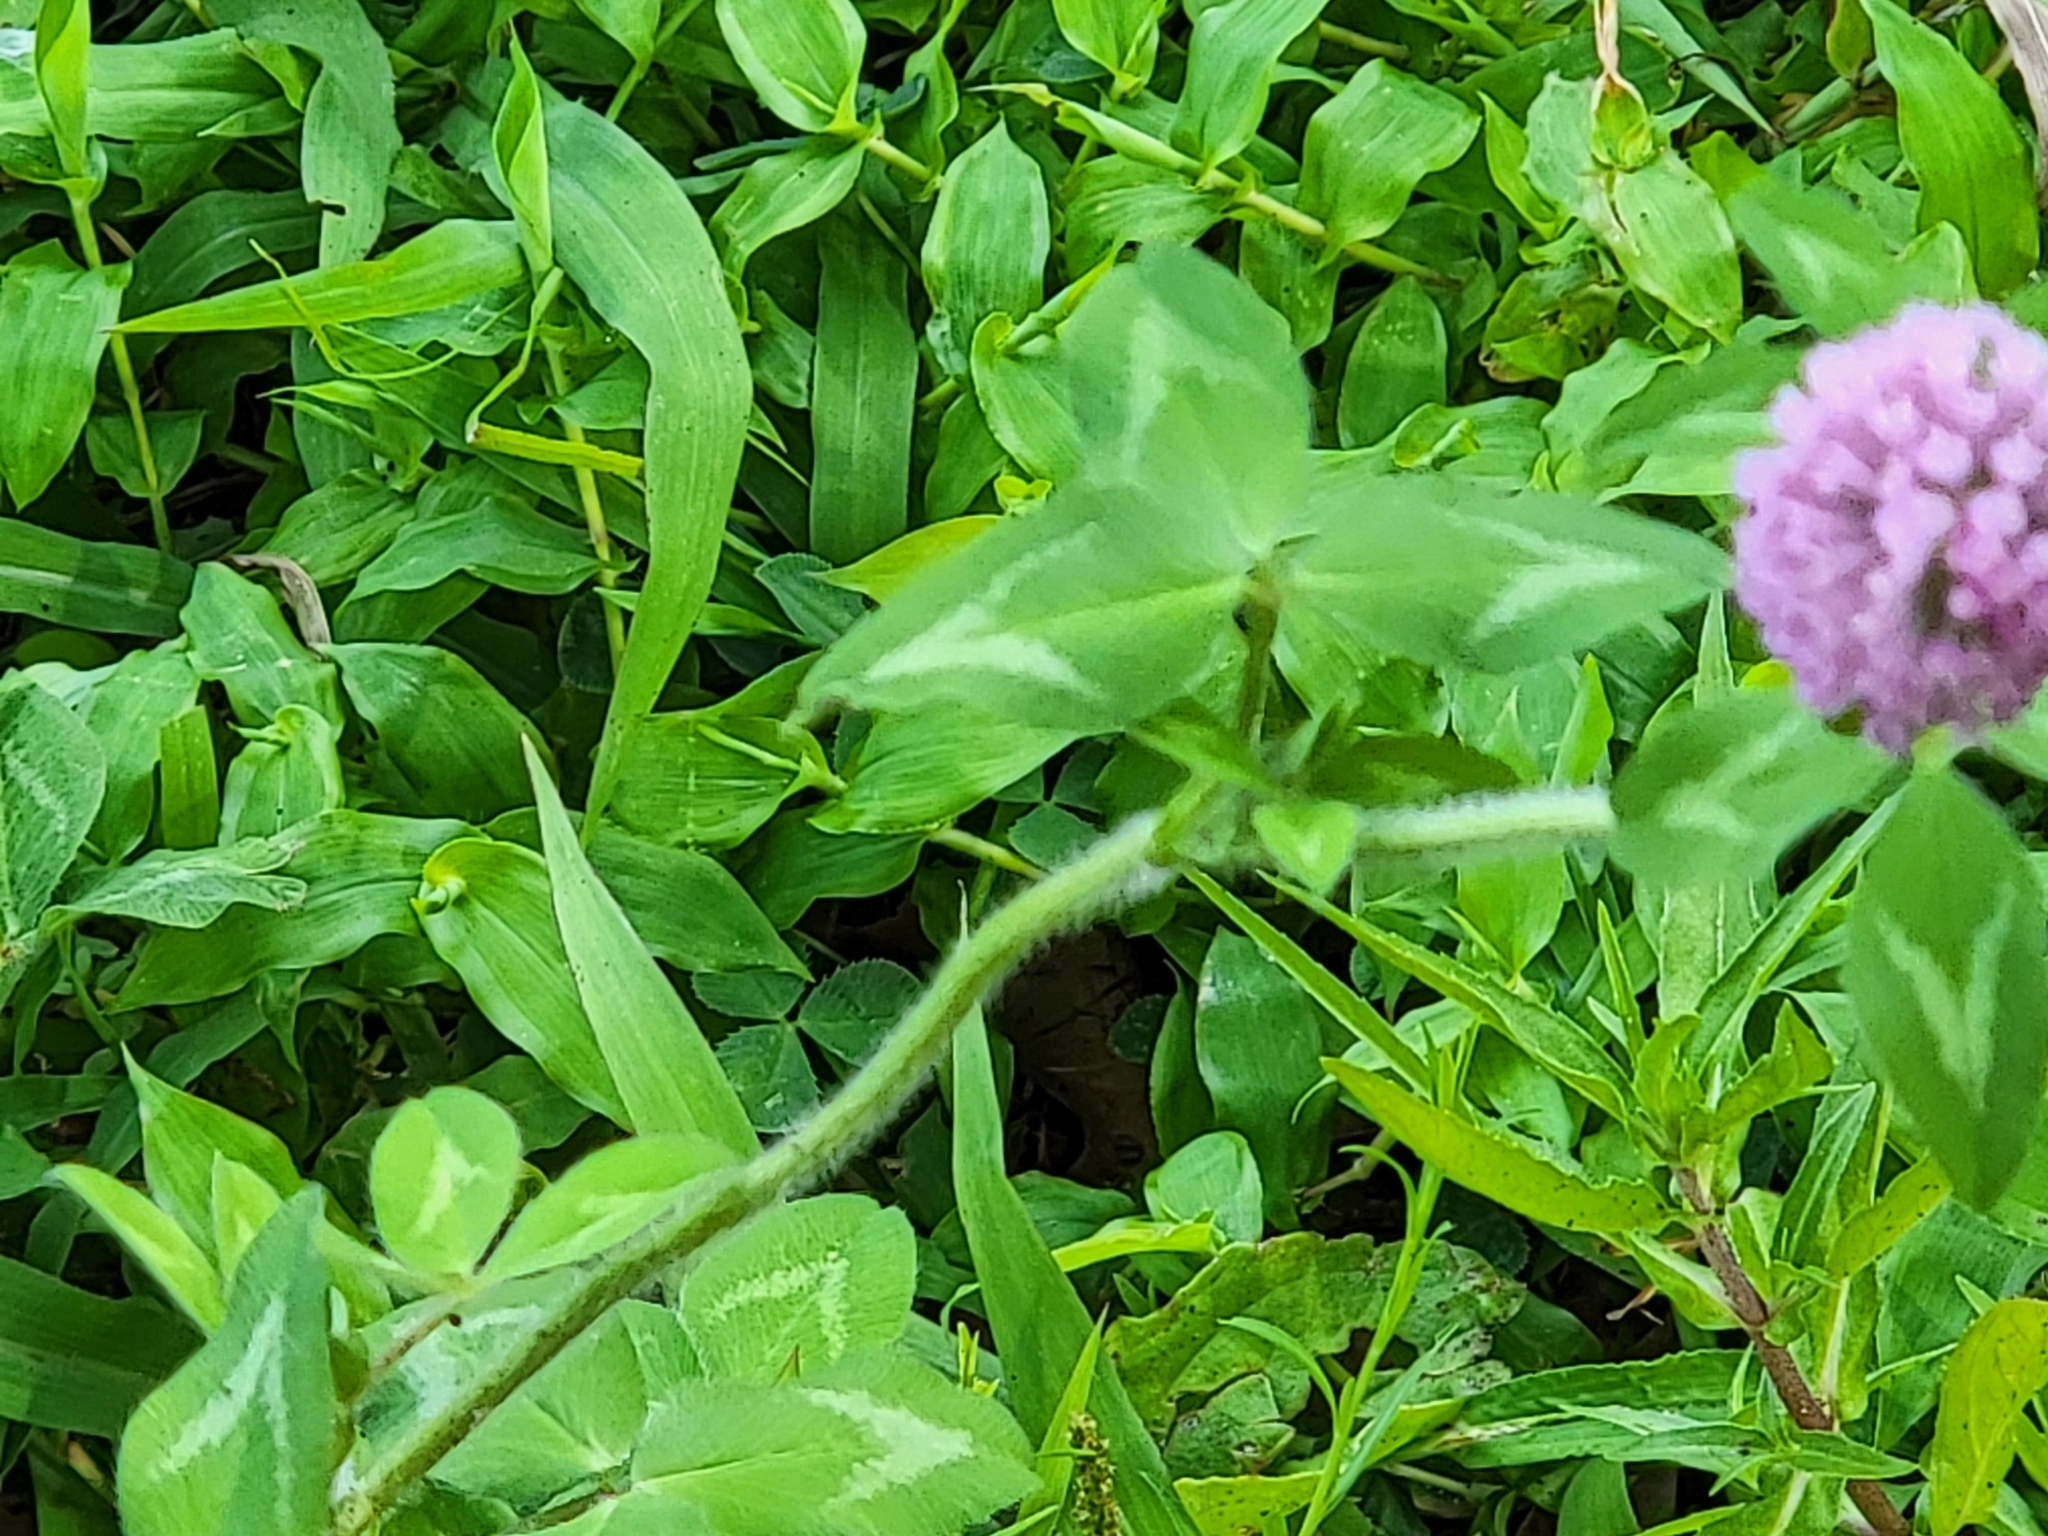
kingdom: Plantae
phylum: Tracheophyta
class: Magnoliopsida
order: Fabales
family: Fabaceae
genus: Trifolium
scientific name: Trifolium pratense
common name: Red clover
